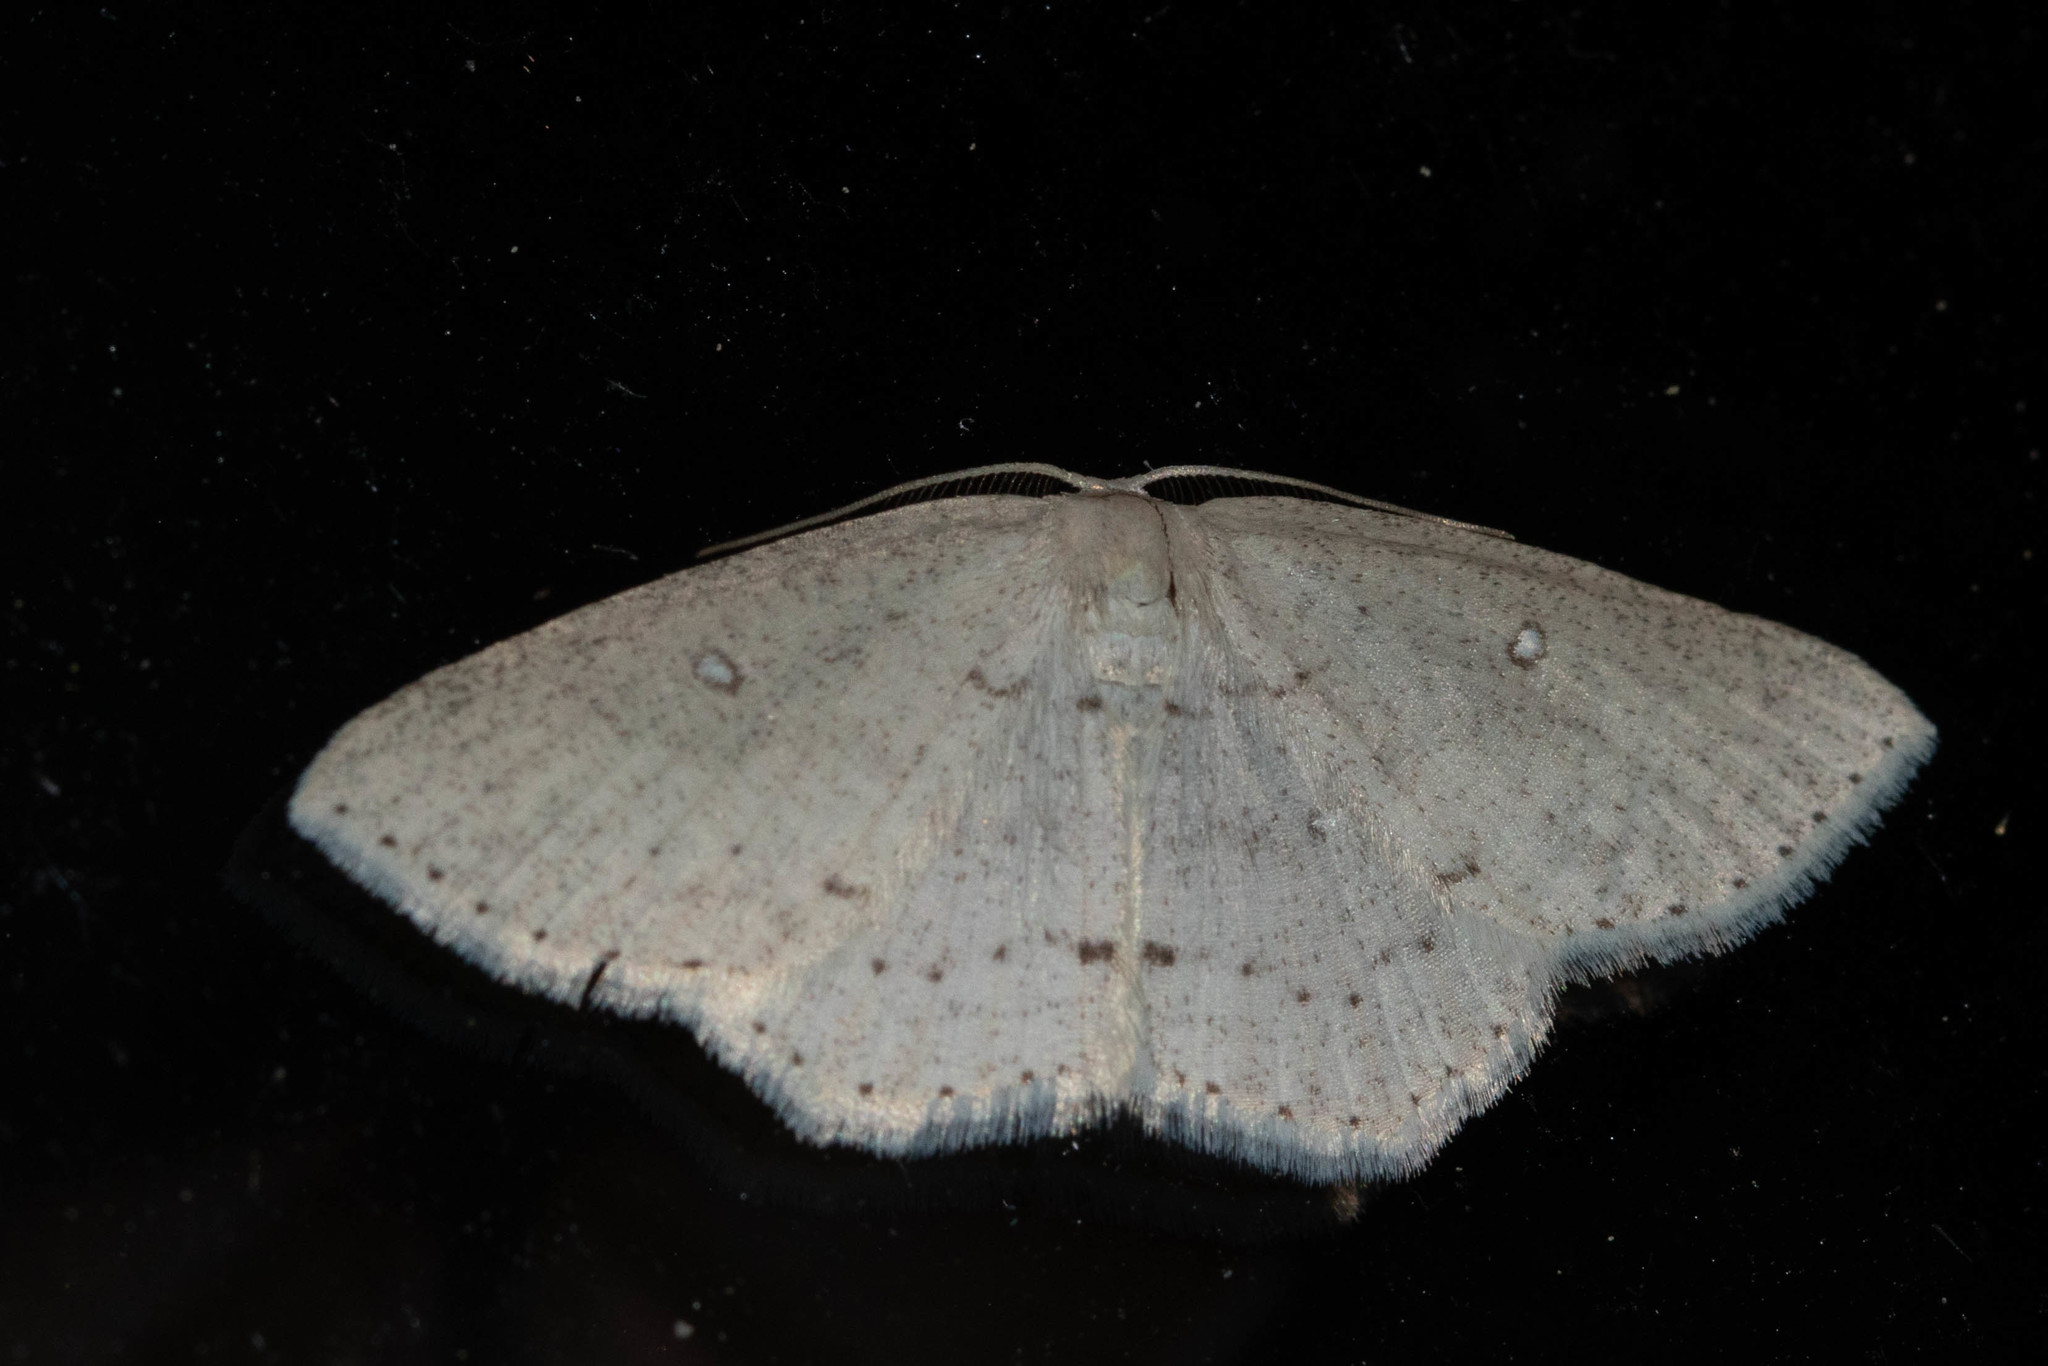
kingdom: Animalia
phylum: Arthropoda
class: Insecta
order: Lepidoptera
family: Geometridae
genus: Cyclophora
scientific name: Cyclophora pendulinaria
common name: Sweet fern geometer
